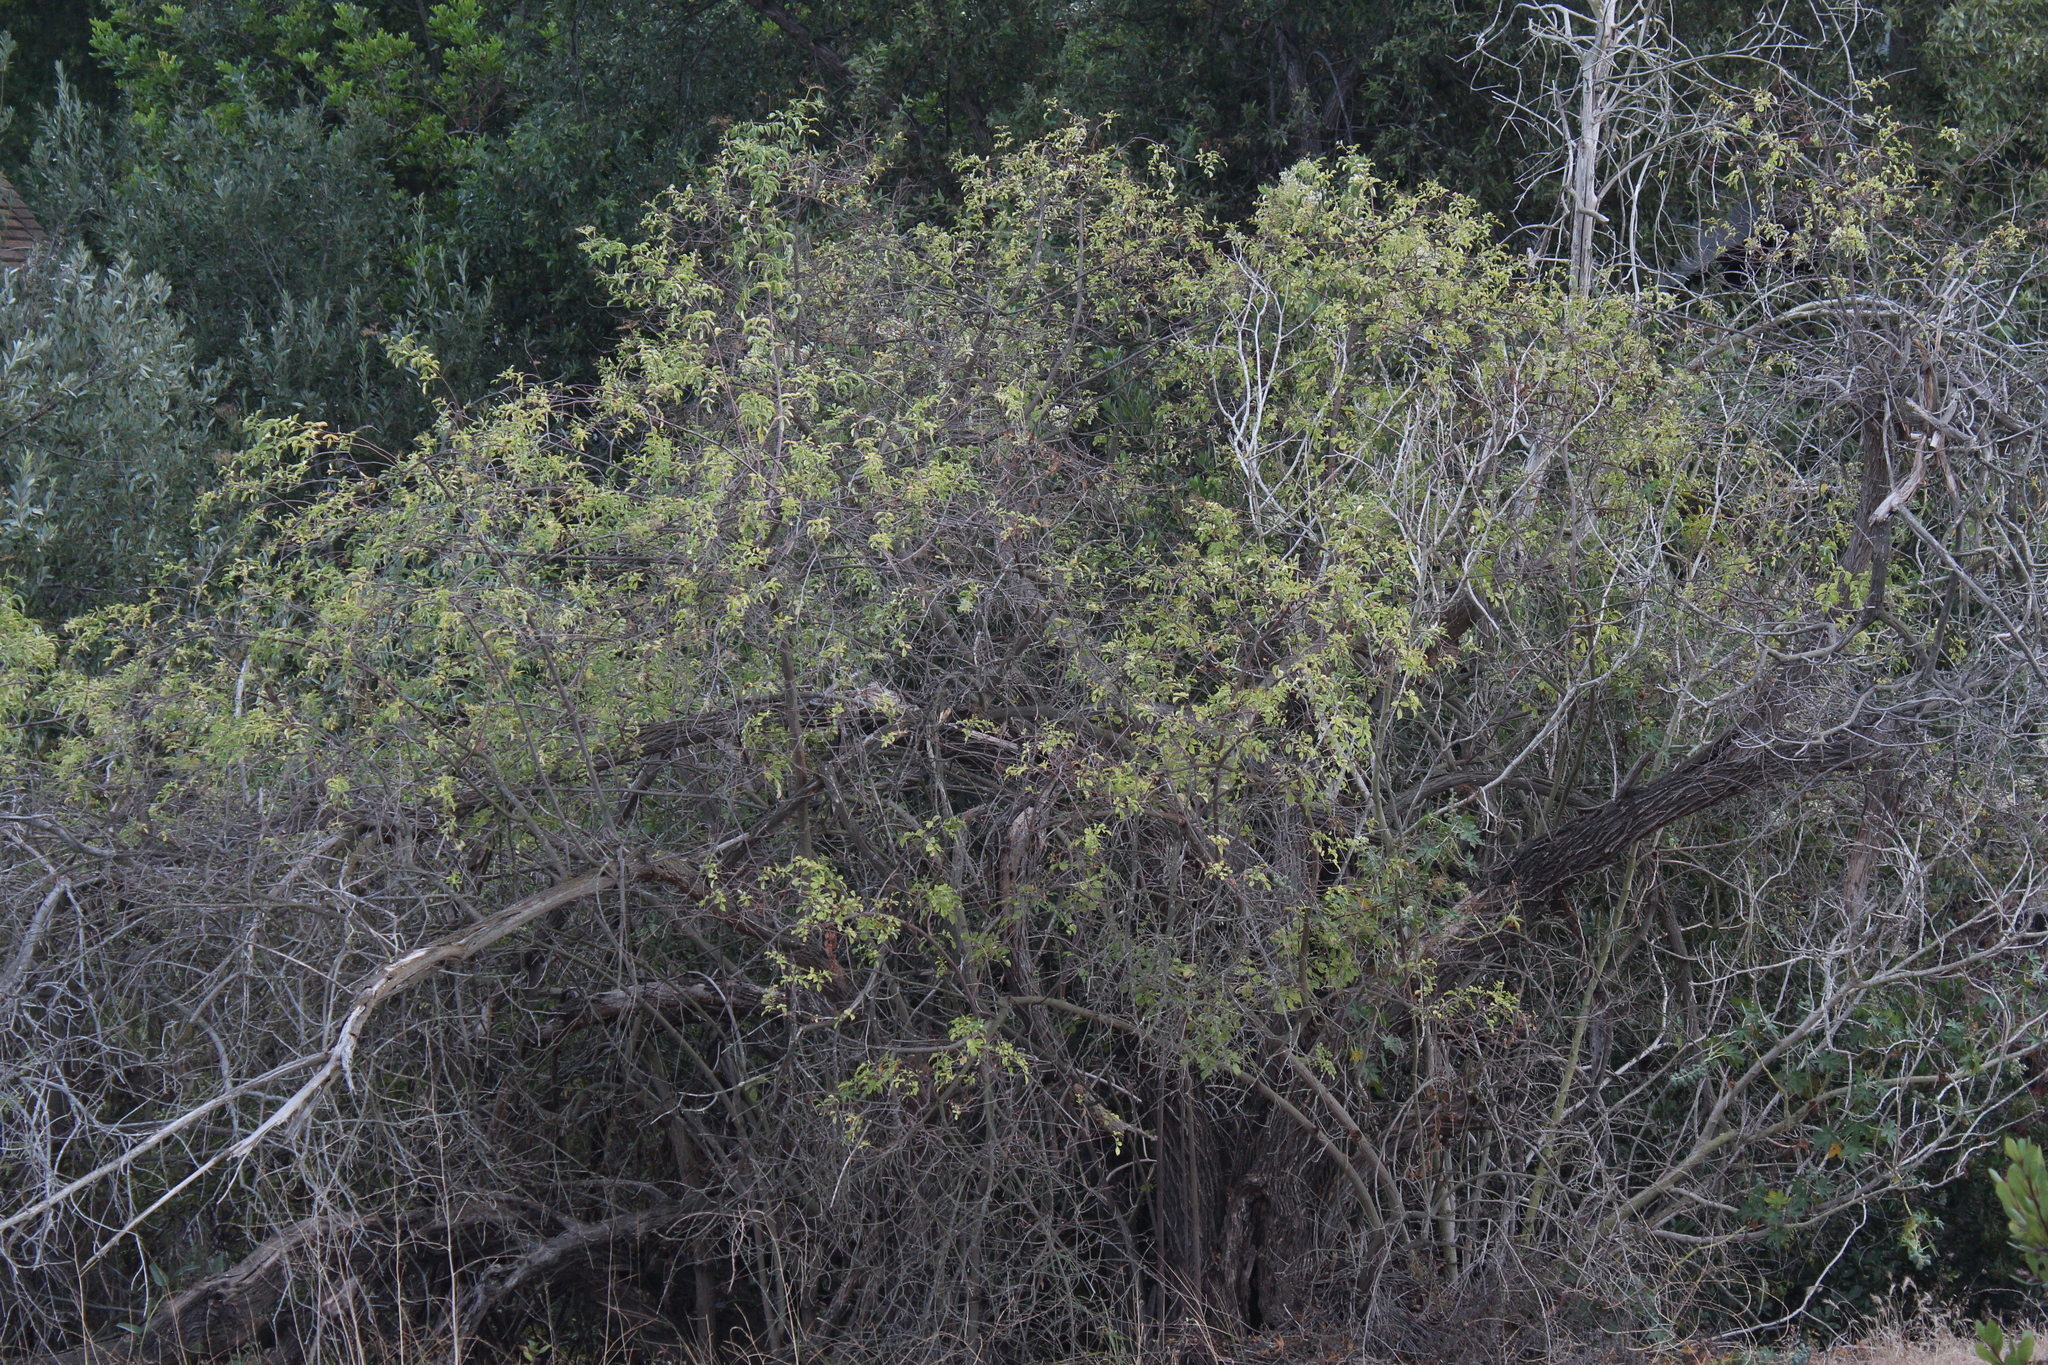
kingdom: Plantae
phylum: Tracheophyta
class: Magnoliopsida
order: Dipsacales
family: Viburnaceae
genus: Sambucus
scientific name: Sambucus cerulea
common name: Blue elder
